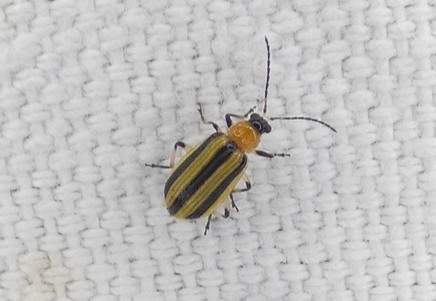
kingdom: Animalia
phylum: Arthropoda
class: Insecta
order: Coleoptera
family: Chrysomelidae
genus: Acalymma
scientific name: Acalymma vittatum
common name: Striped cucumber beetle
